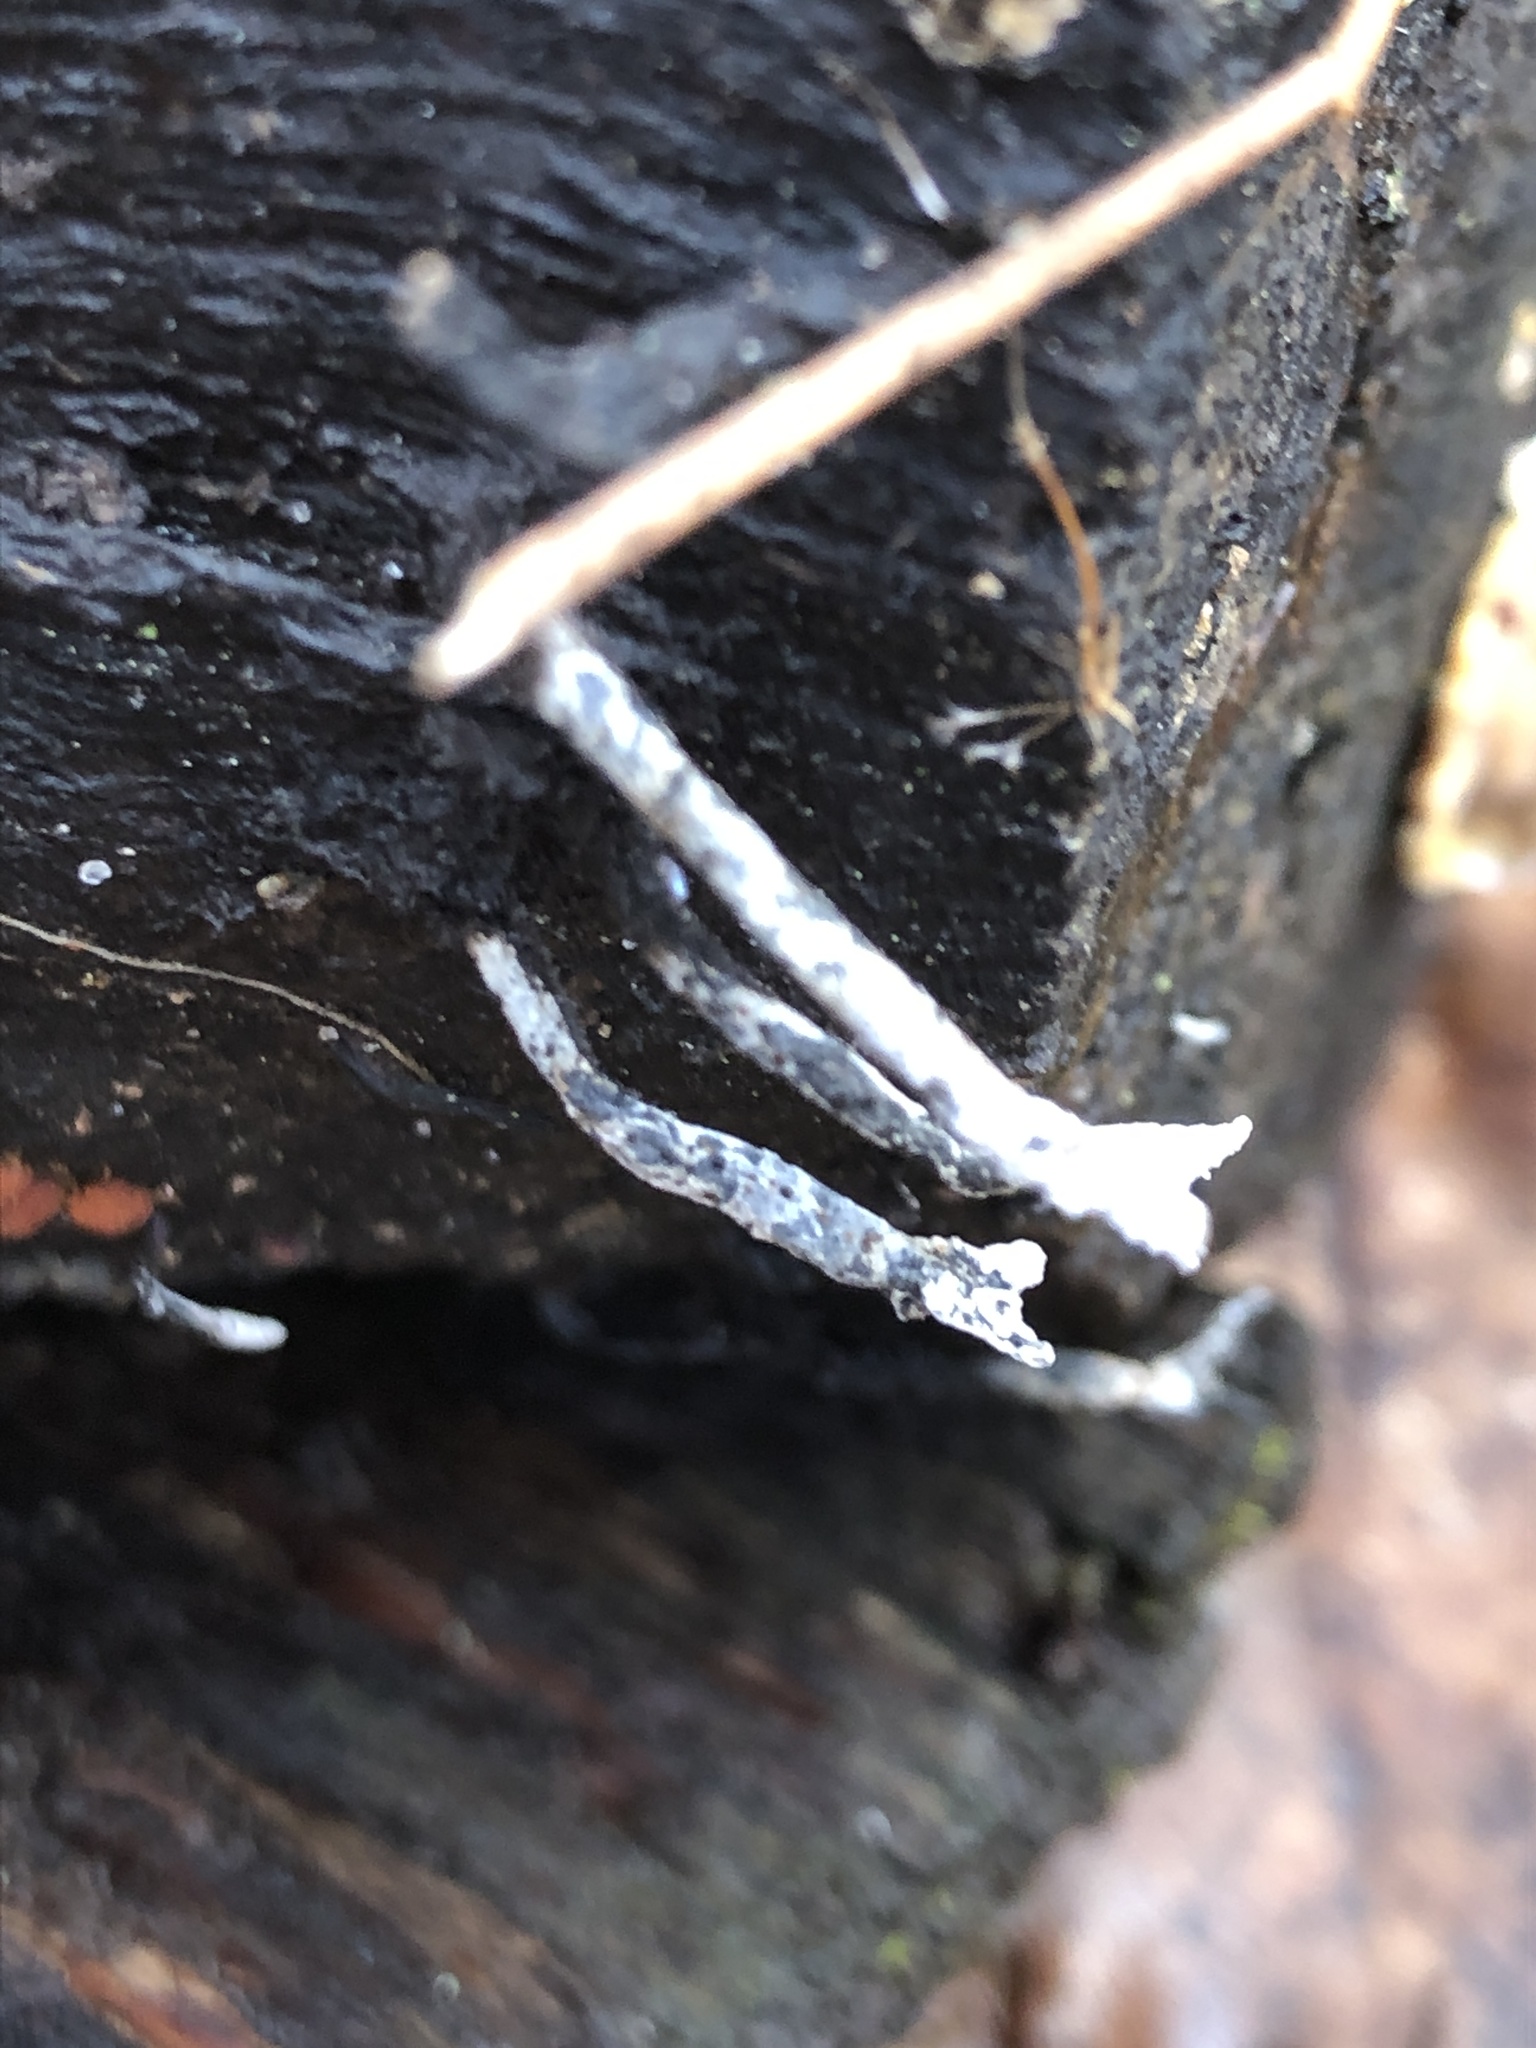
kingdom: Fungi
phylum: Ascomycota
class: Sordariomycetes
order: Xylariales
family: Xylariaceae
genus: Xylaria
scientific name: Xylaria hypoxylon
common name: Candle-snuff fungus
